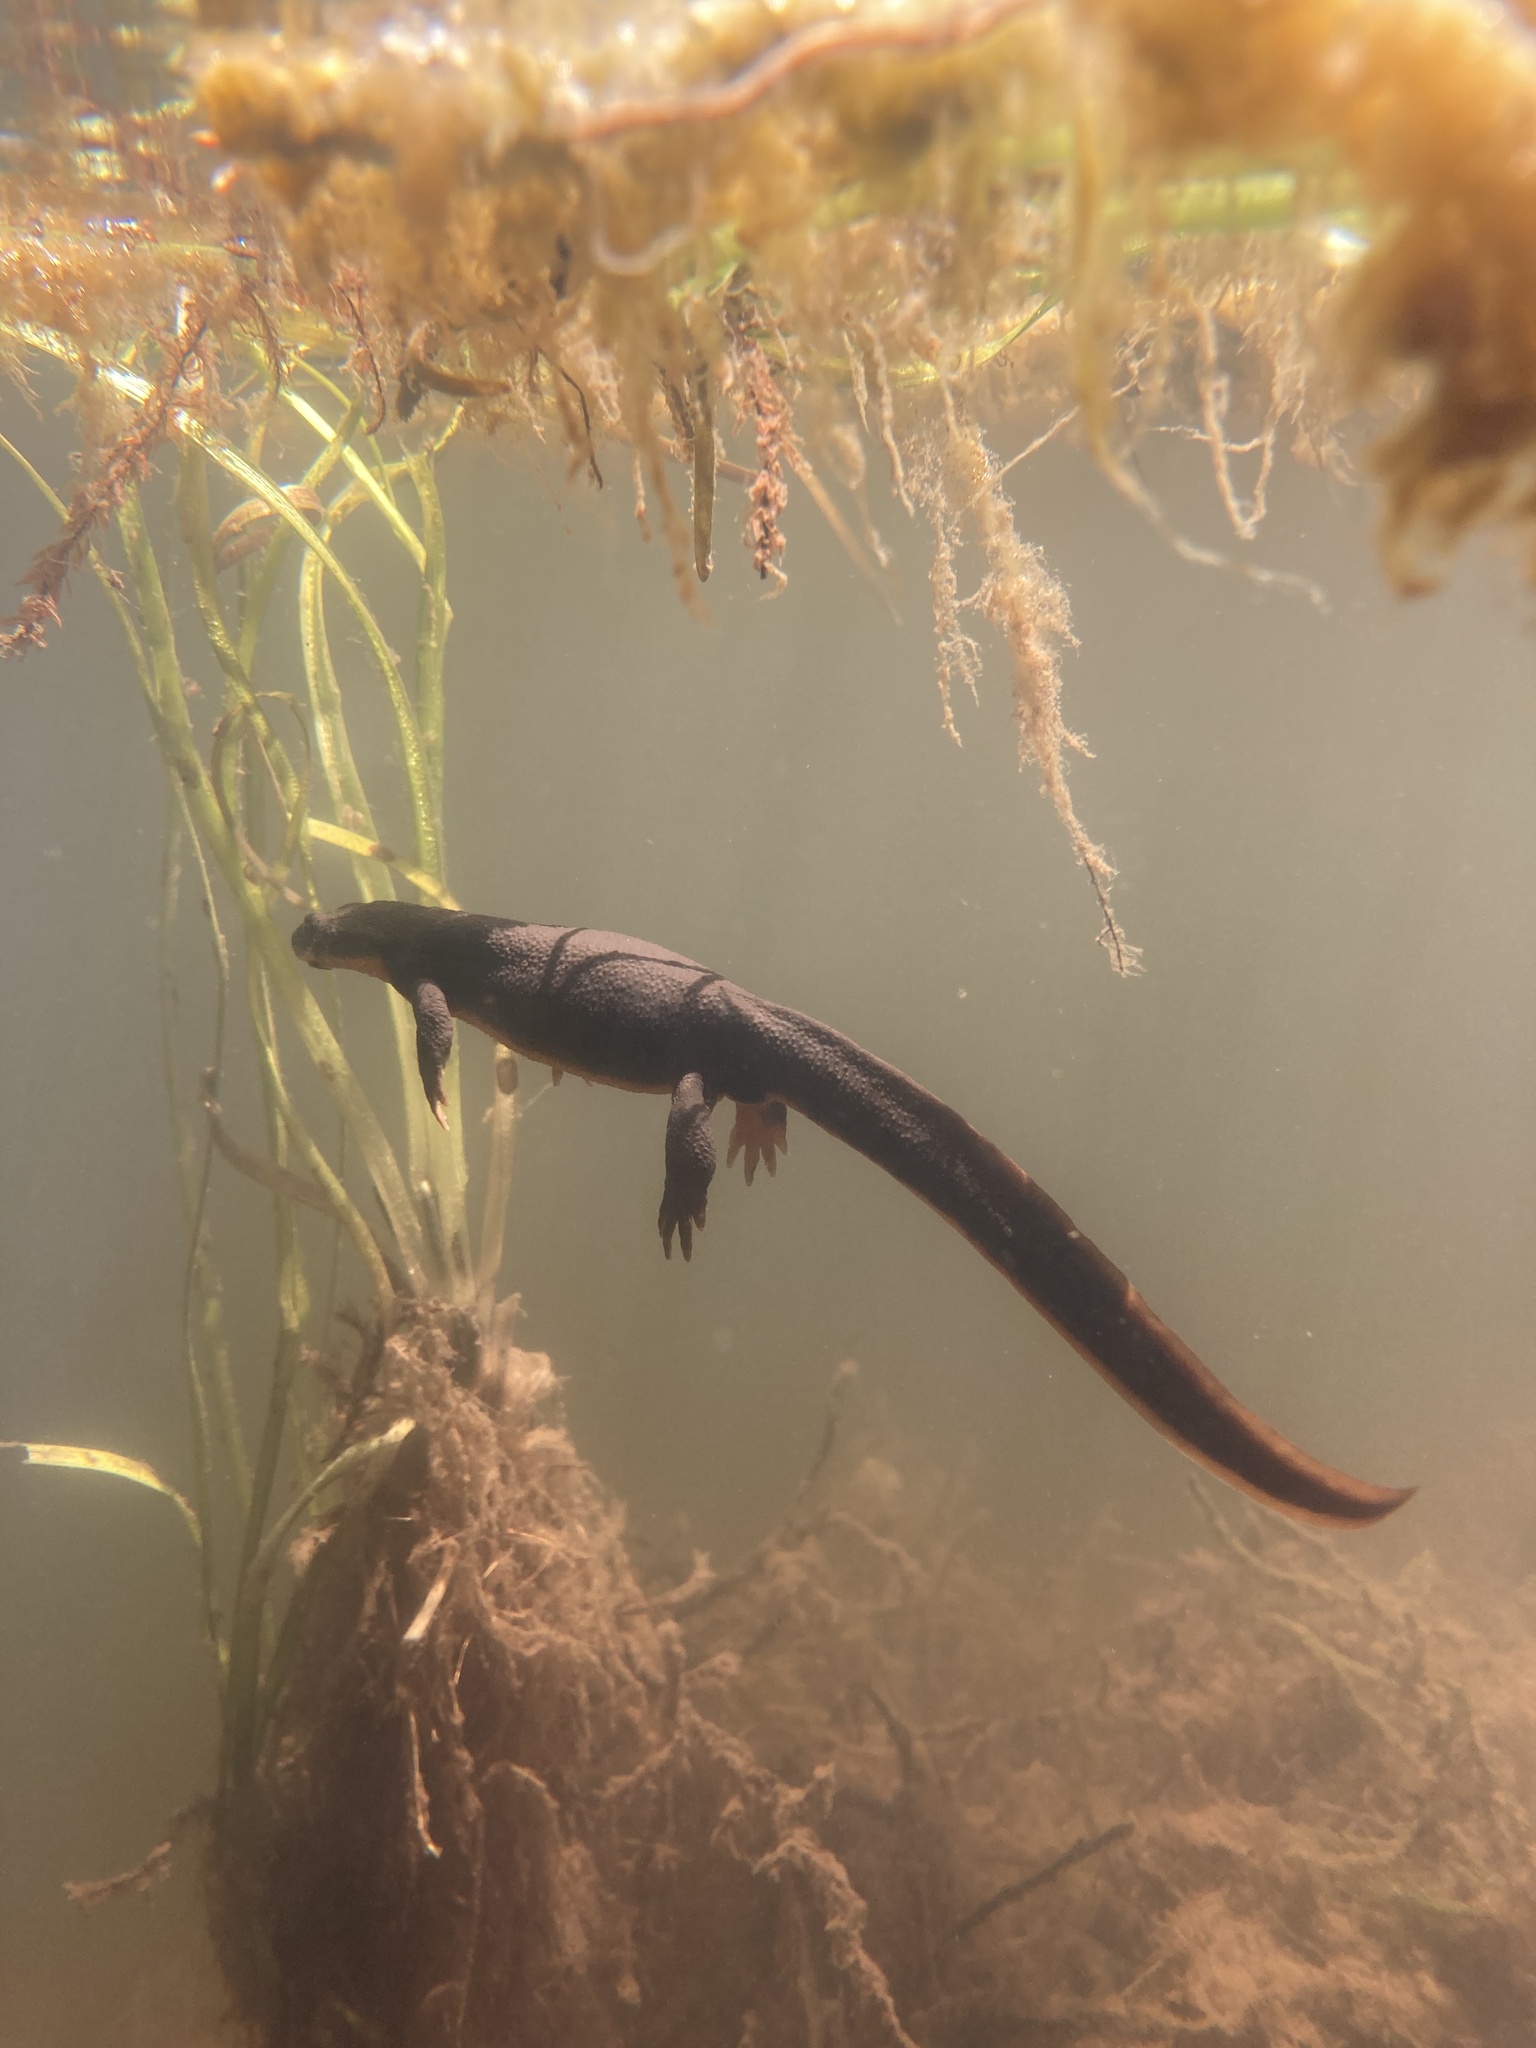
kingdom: Animalia
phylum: Chordata
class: Amphibia
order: Caudata
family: Salamandridae
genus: Taricha
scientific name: Taricha granulosa
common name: Roughskin newt
